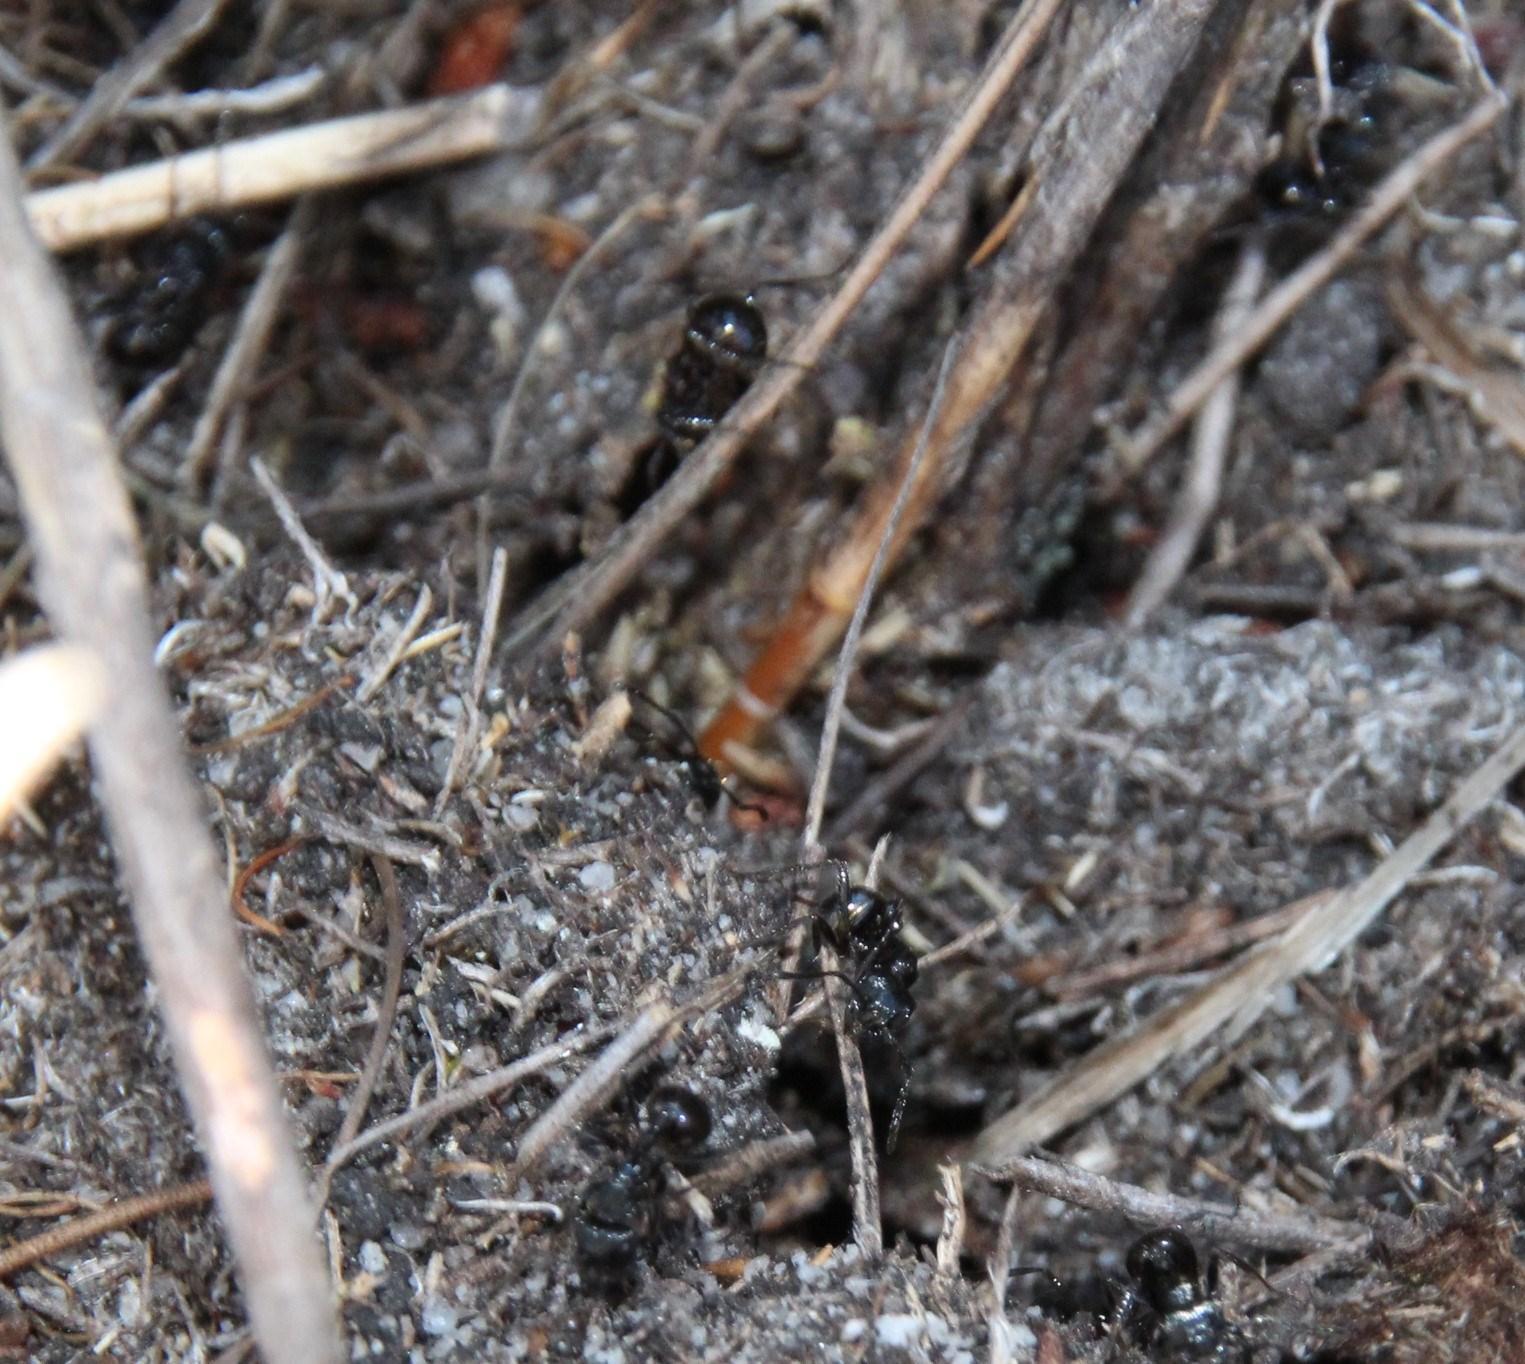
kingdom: Animalia
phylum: Arthropoda
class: Insecta
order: Hymenoptera
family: Formicidae
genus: Myrmicaria
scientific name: Myrmicaria nigra
